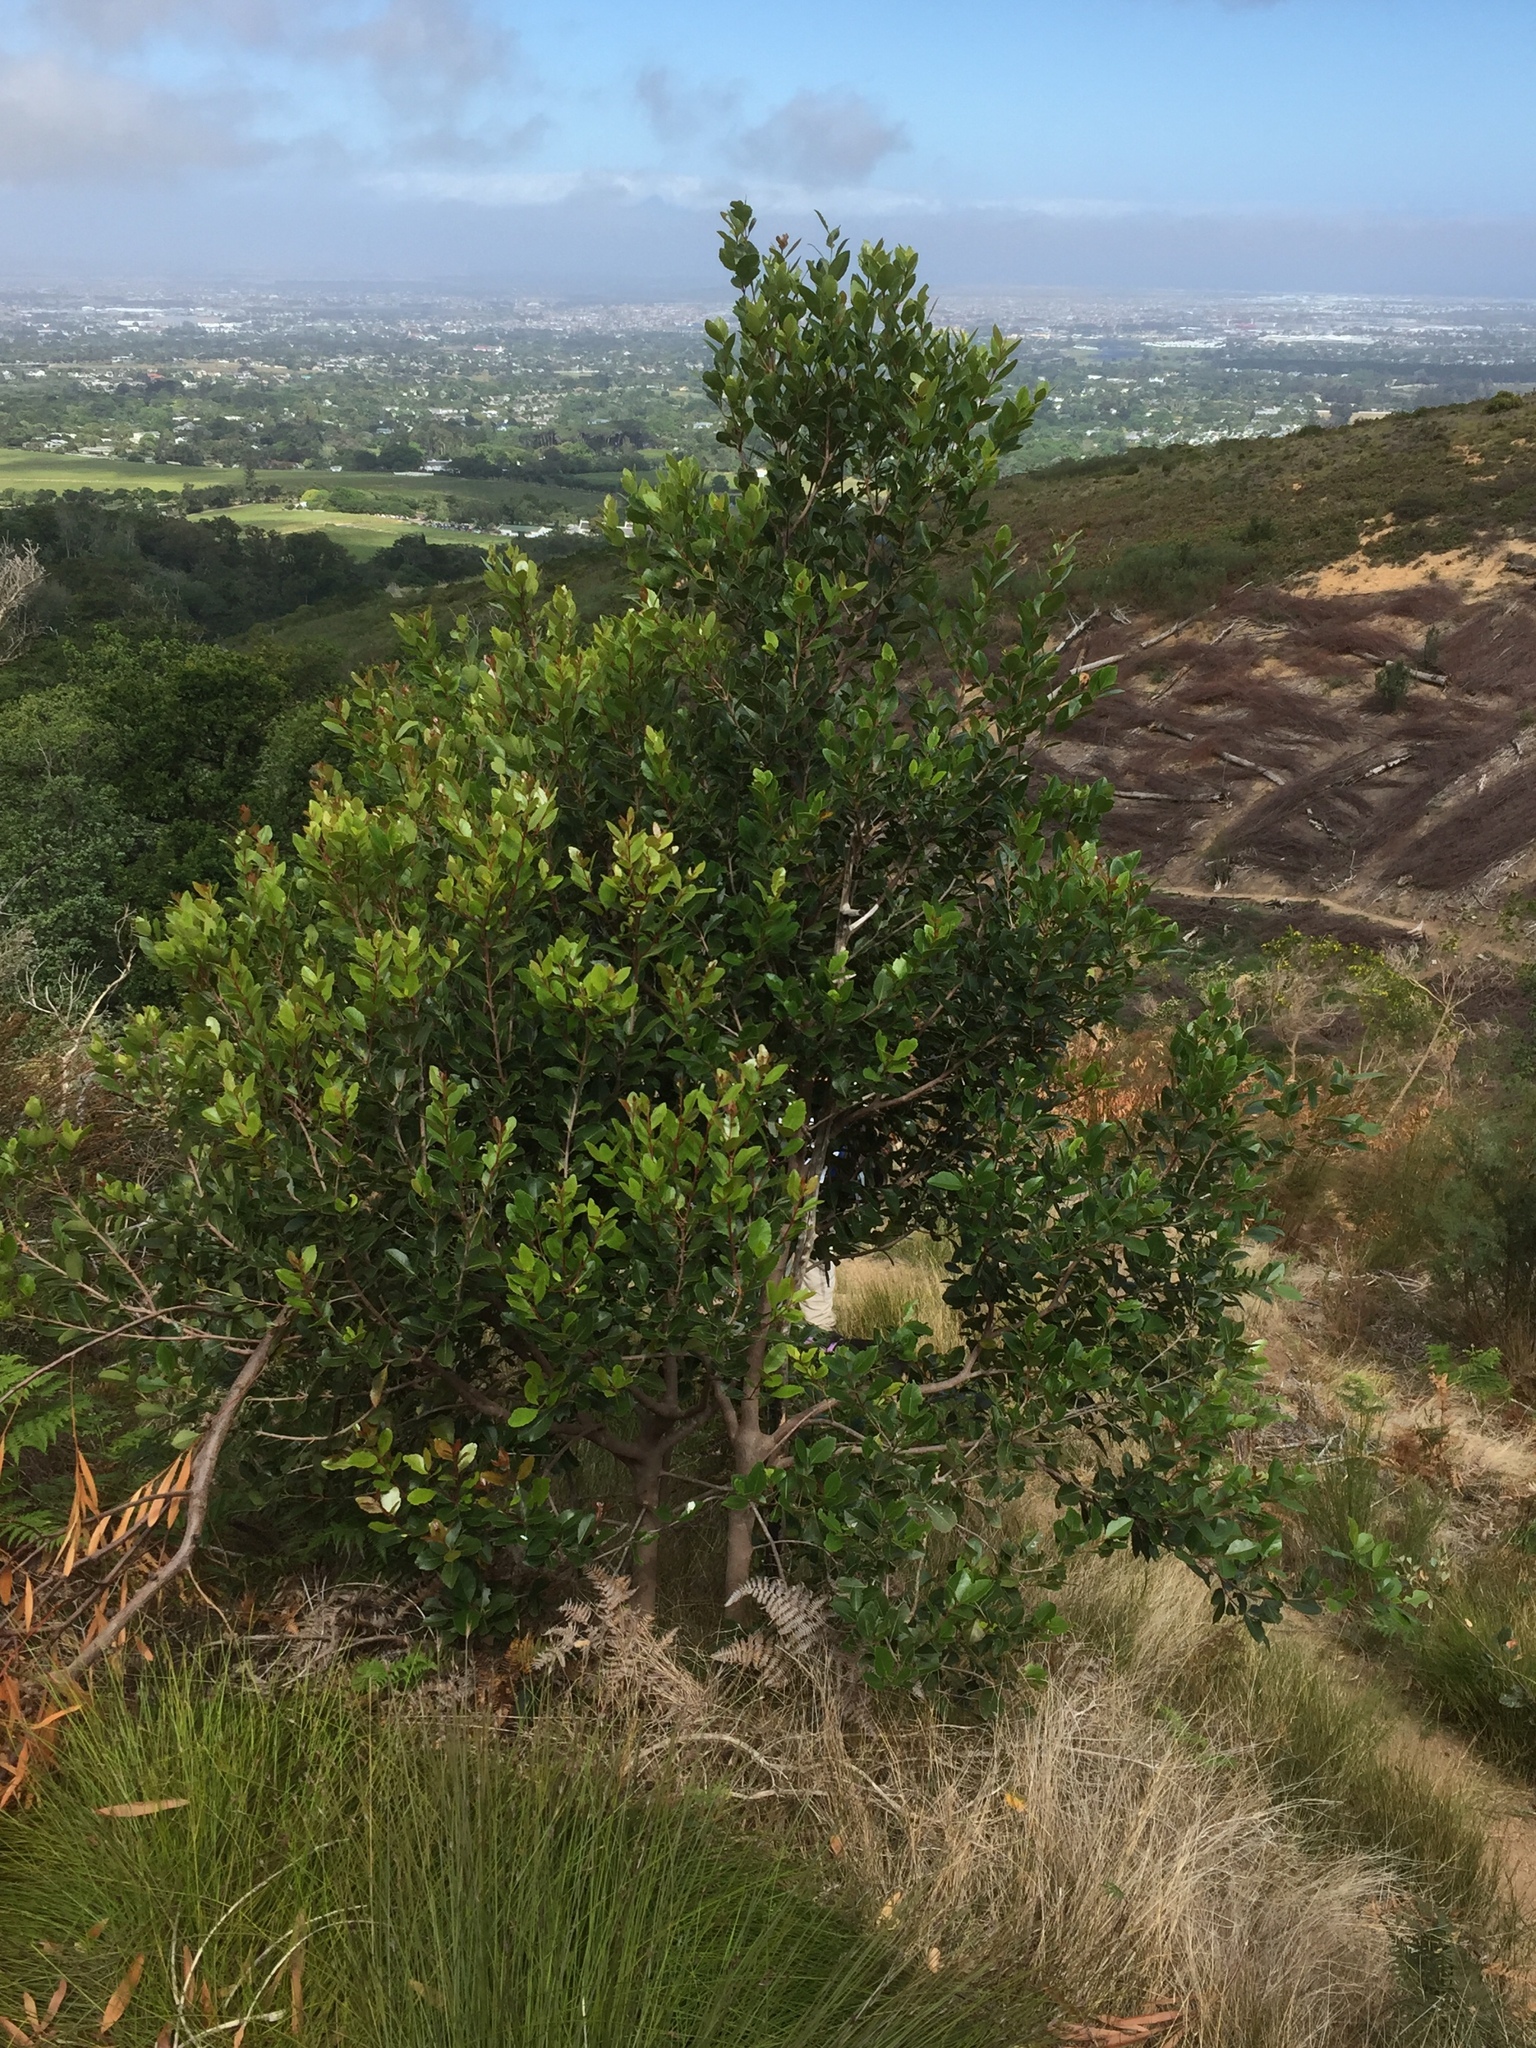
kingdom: Plantae
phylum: Tracheophyta
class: Magnoliopsida
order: Celastrales
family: Celastraceae
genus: Cassine
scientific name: Cassine peragua
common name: Cape saffron
